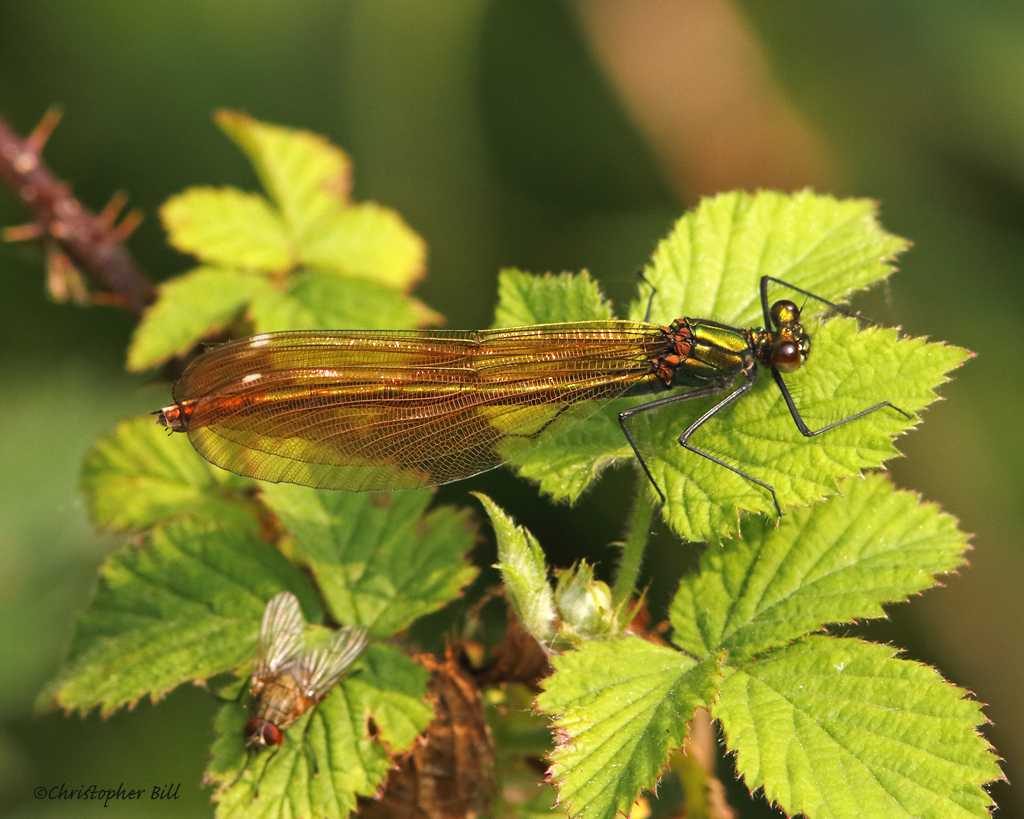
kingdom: Animalia
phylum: Arthropoda
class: Insecta
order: Odonata
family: Calopterygidae
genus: Calopteryx
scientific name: Calopteryx virgo
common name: Beautiful demoiselle
